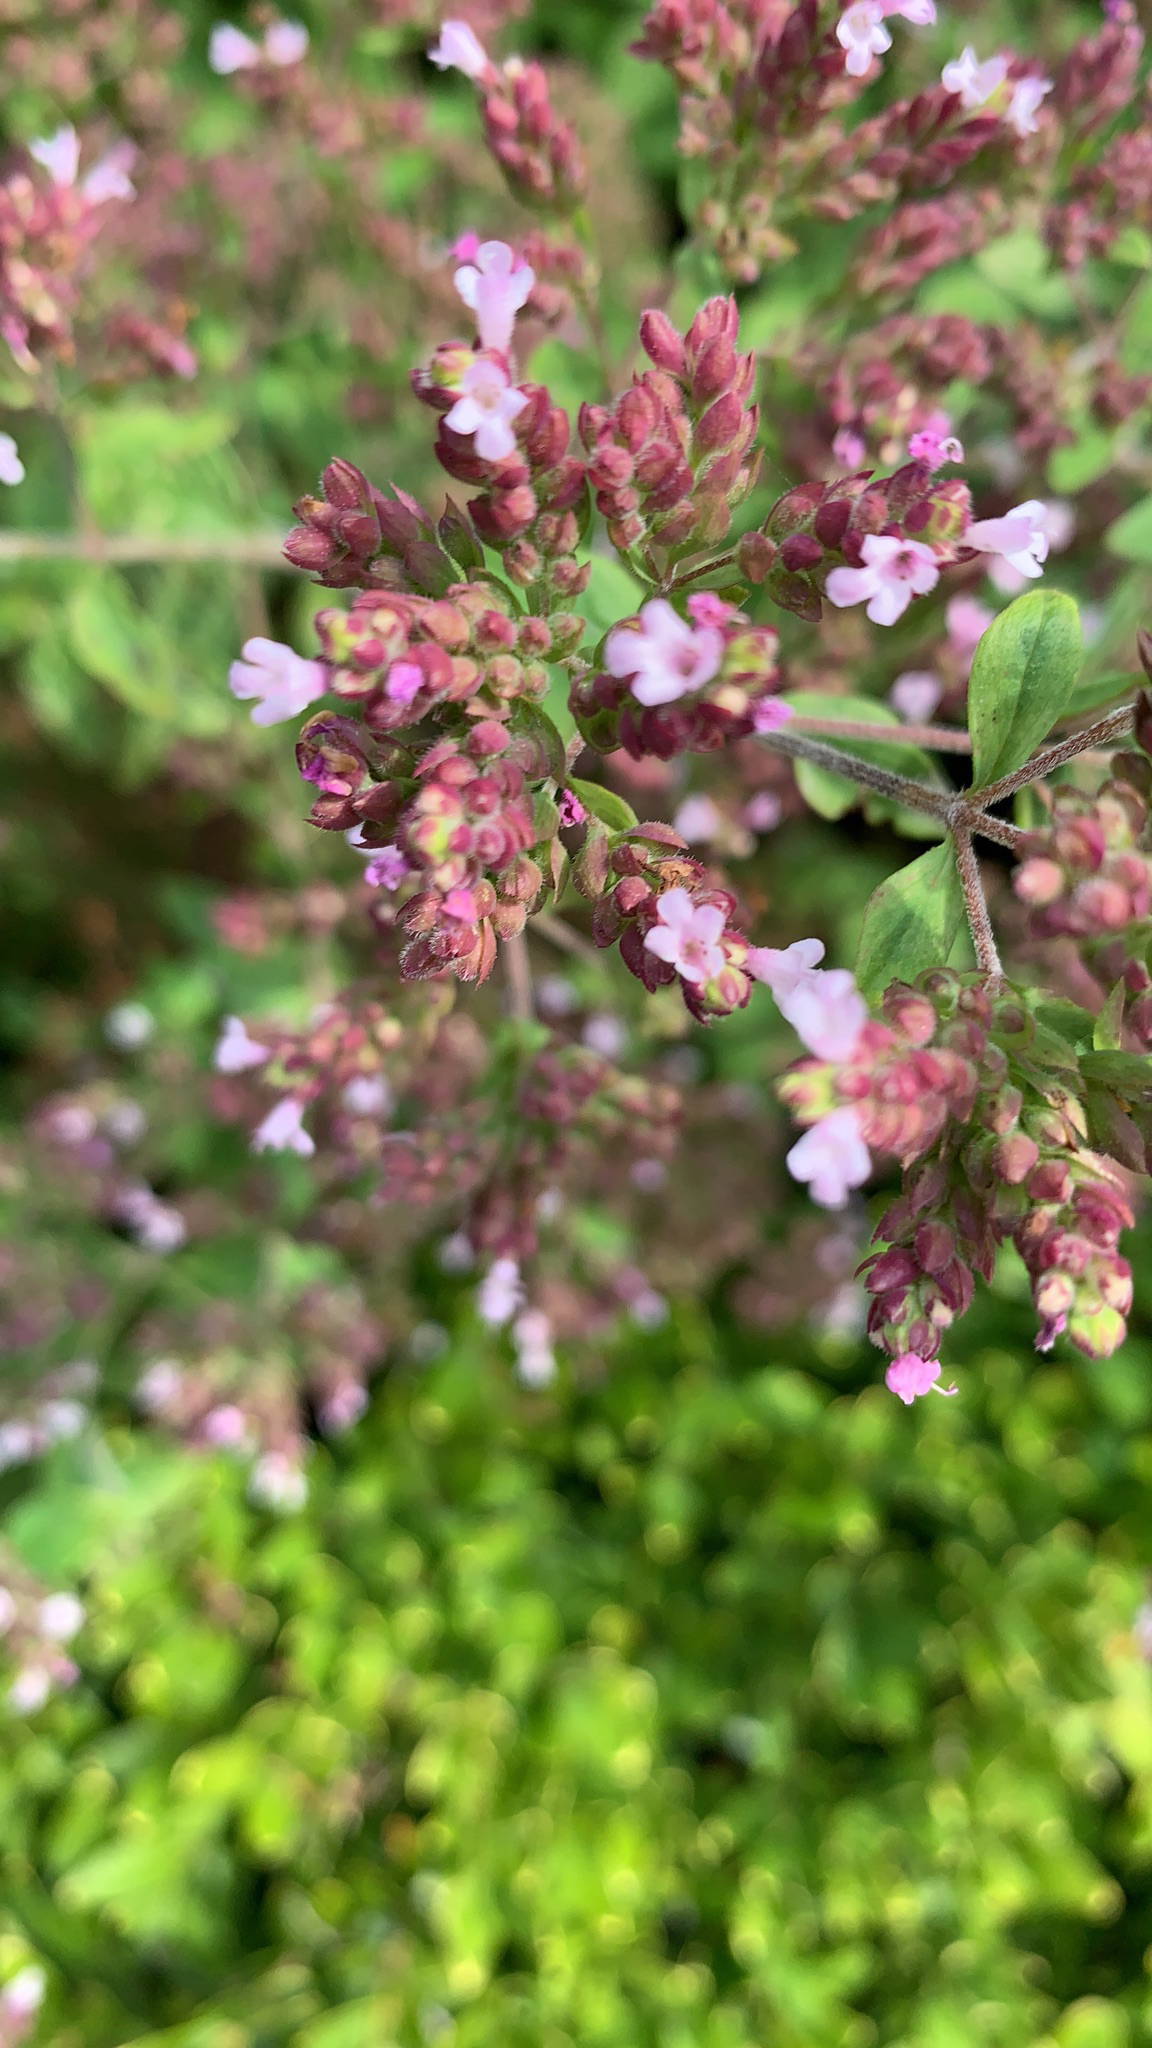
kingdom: Plantae
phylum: Tracheophyta
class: Magnoliopsida
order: Lamiales
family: Lamiaceae
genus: Origanum
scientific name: Origanum vulgare
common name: Wild marjoram
